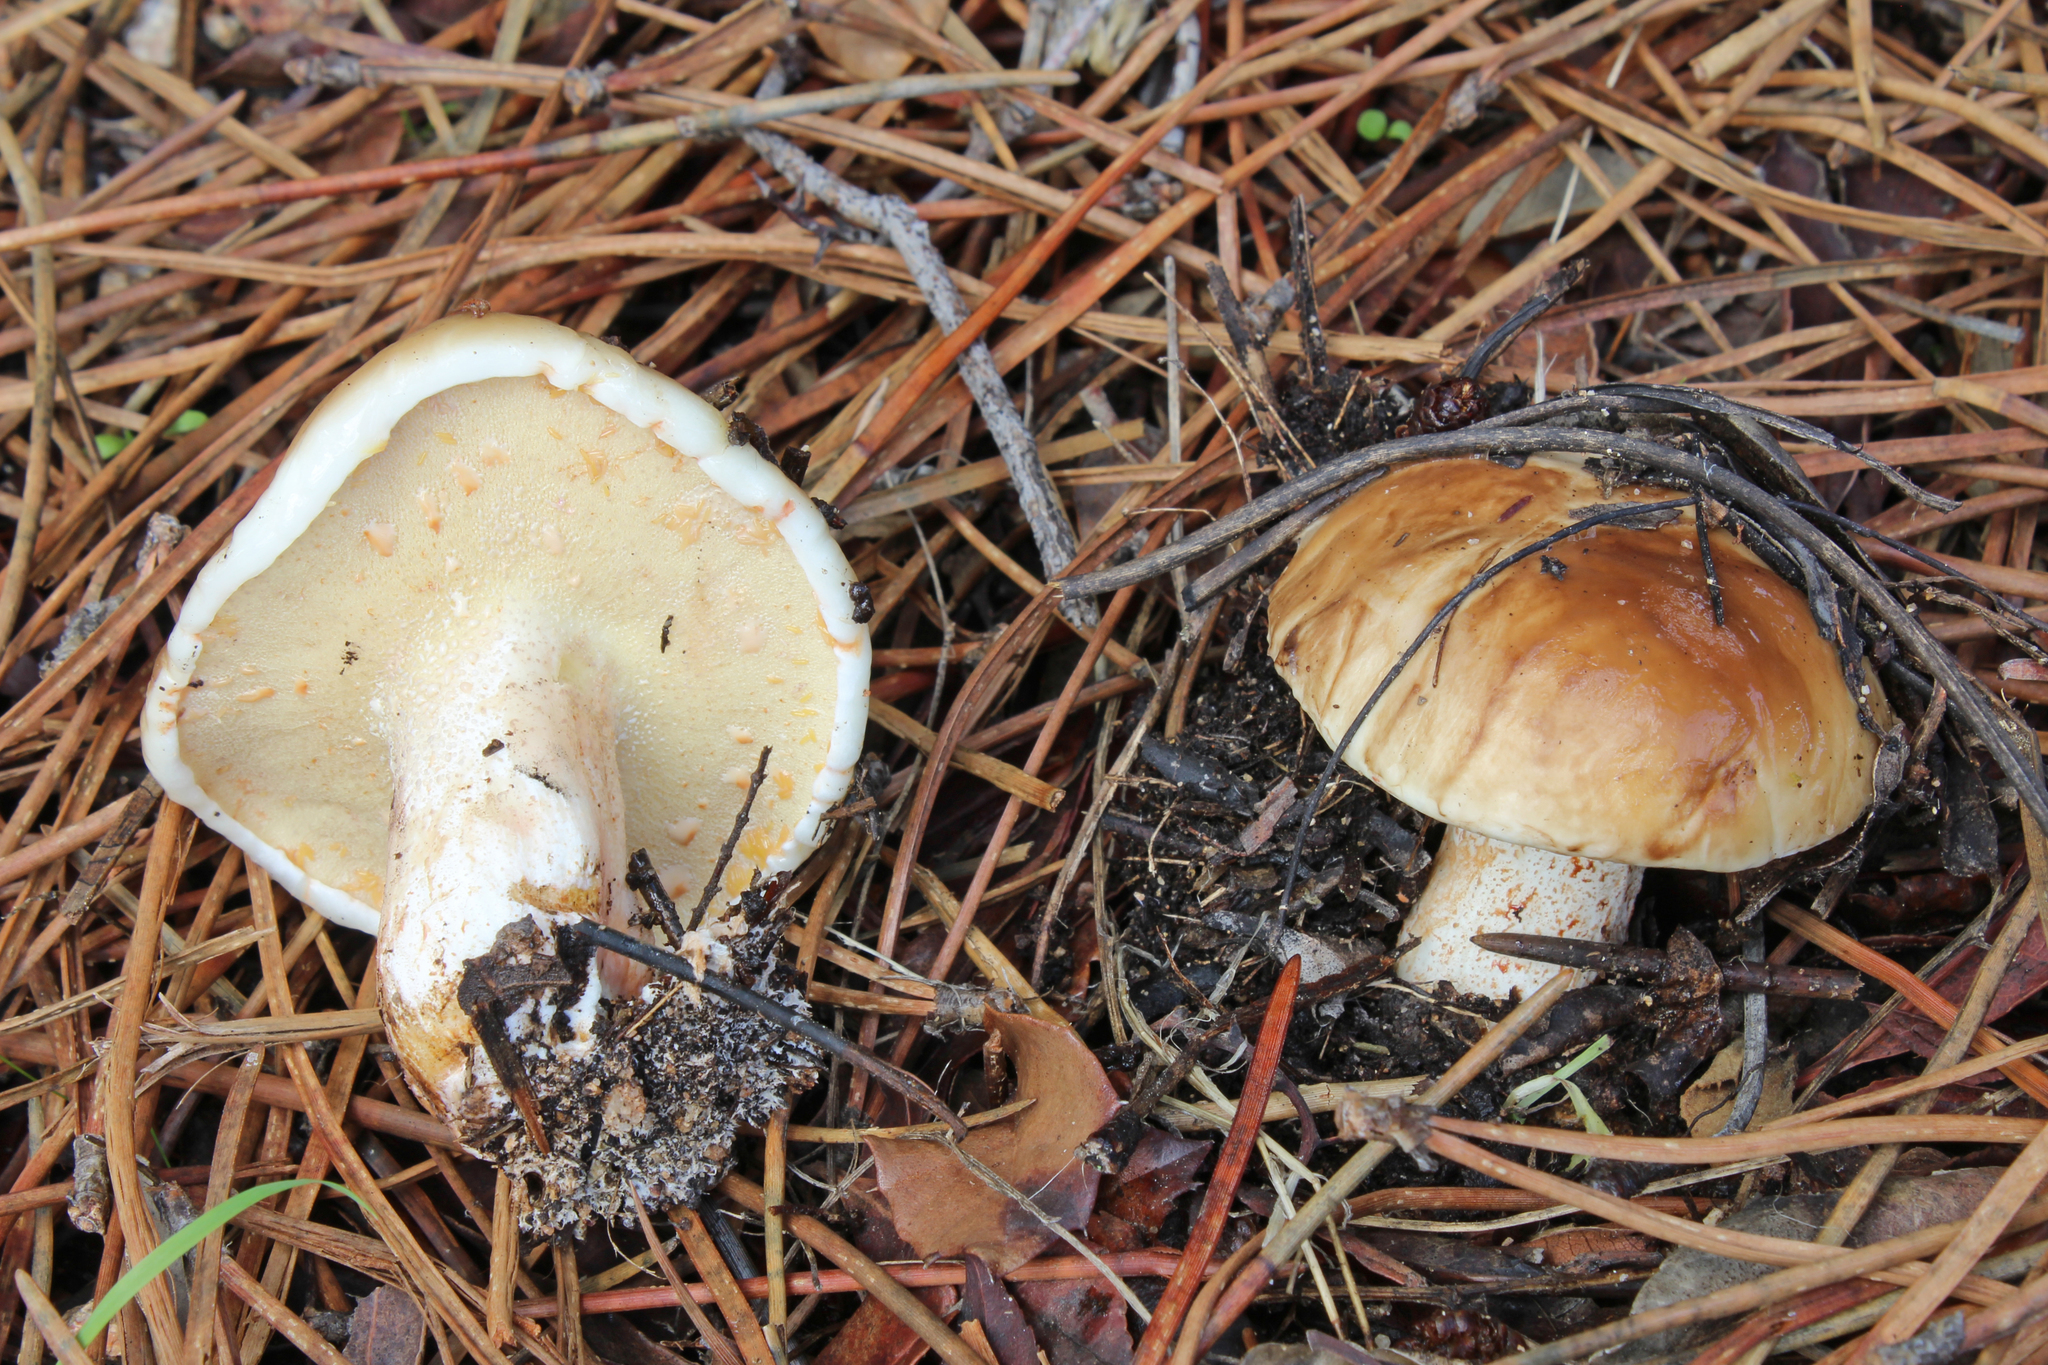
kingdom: Fungi
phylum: Basidiomycota
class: Agaricomycetes
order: Boletales
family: Suillaceae
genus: Suillus
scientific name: Suillus bellinii
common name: Champagne bolete
